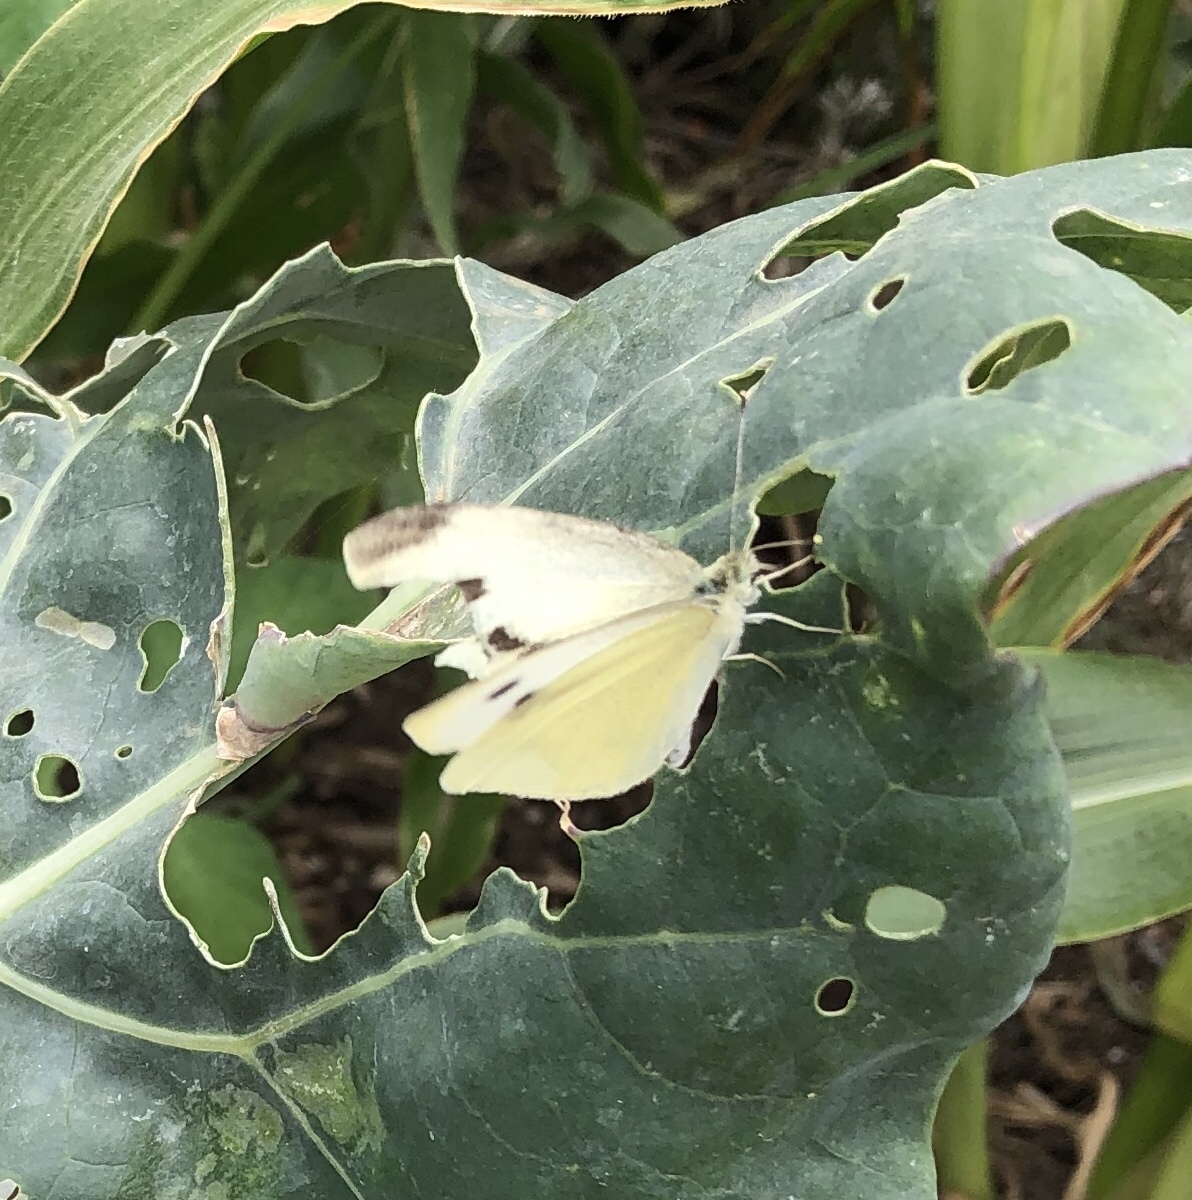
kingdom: Animalia
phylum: Arthropoda
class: Insecta
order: Lepidoptera
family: Pieridae
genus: Pieris
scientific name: Pieris rapae
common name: Small white
